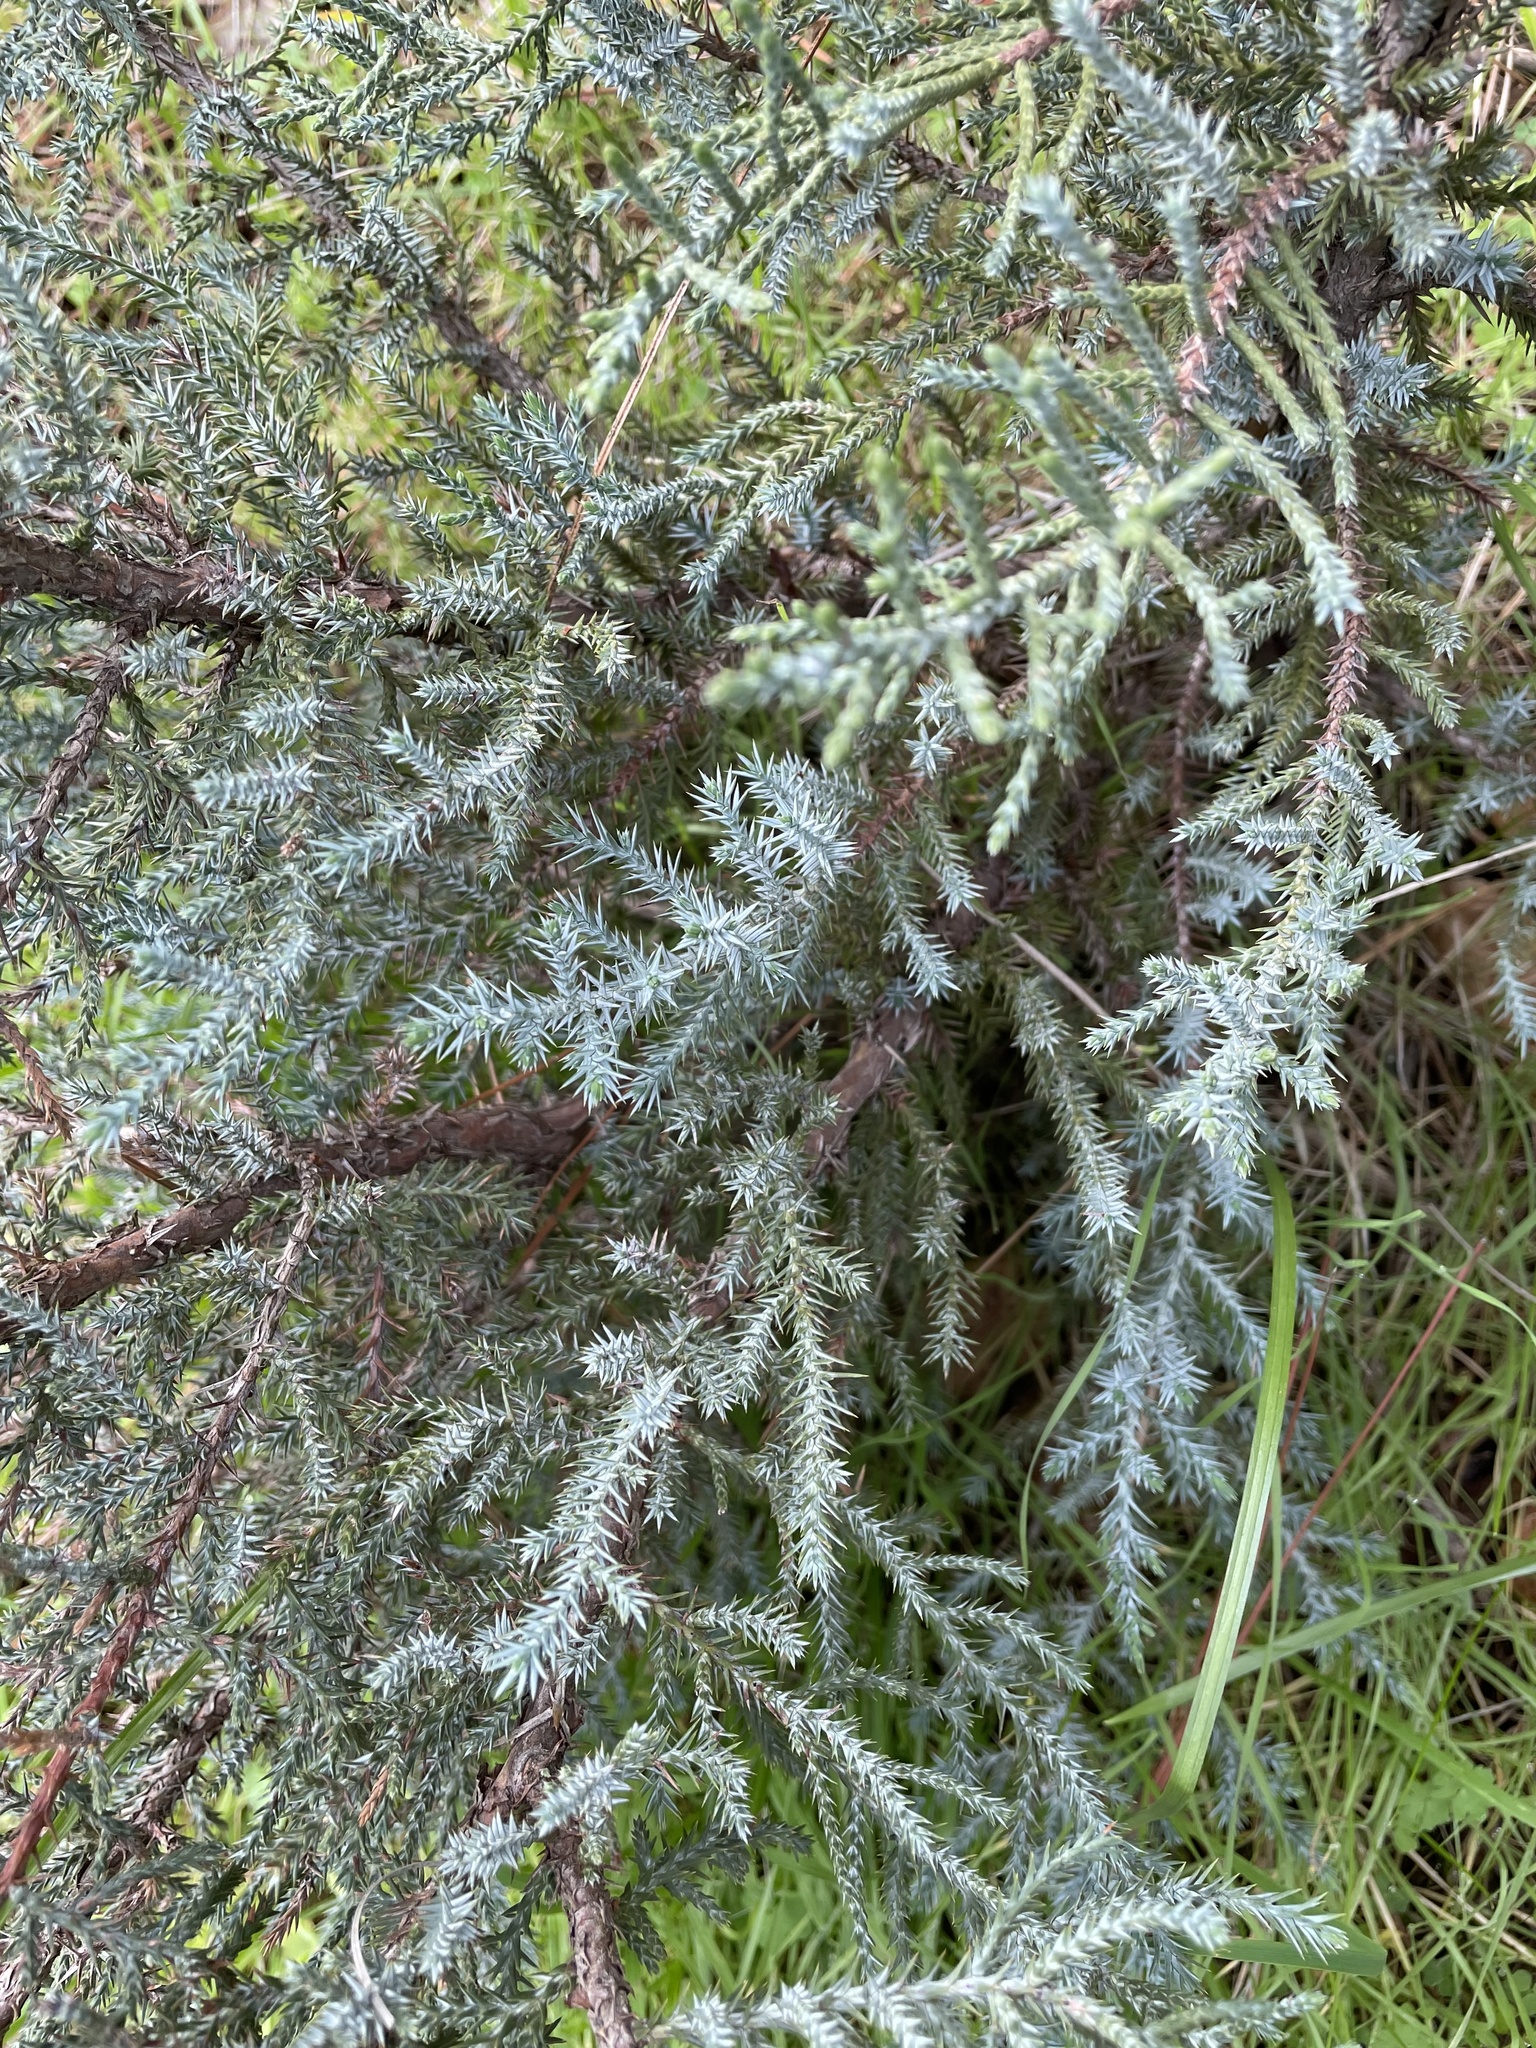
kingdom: Plantae
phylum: Tracheophyta
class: Pinopsida
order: Pinales
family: Cupressaceae
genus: Juniperus
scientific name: Juniperus californica
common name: California juniper
